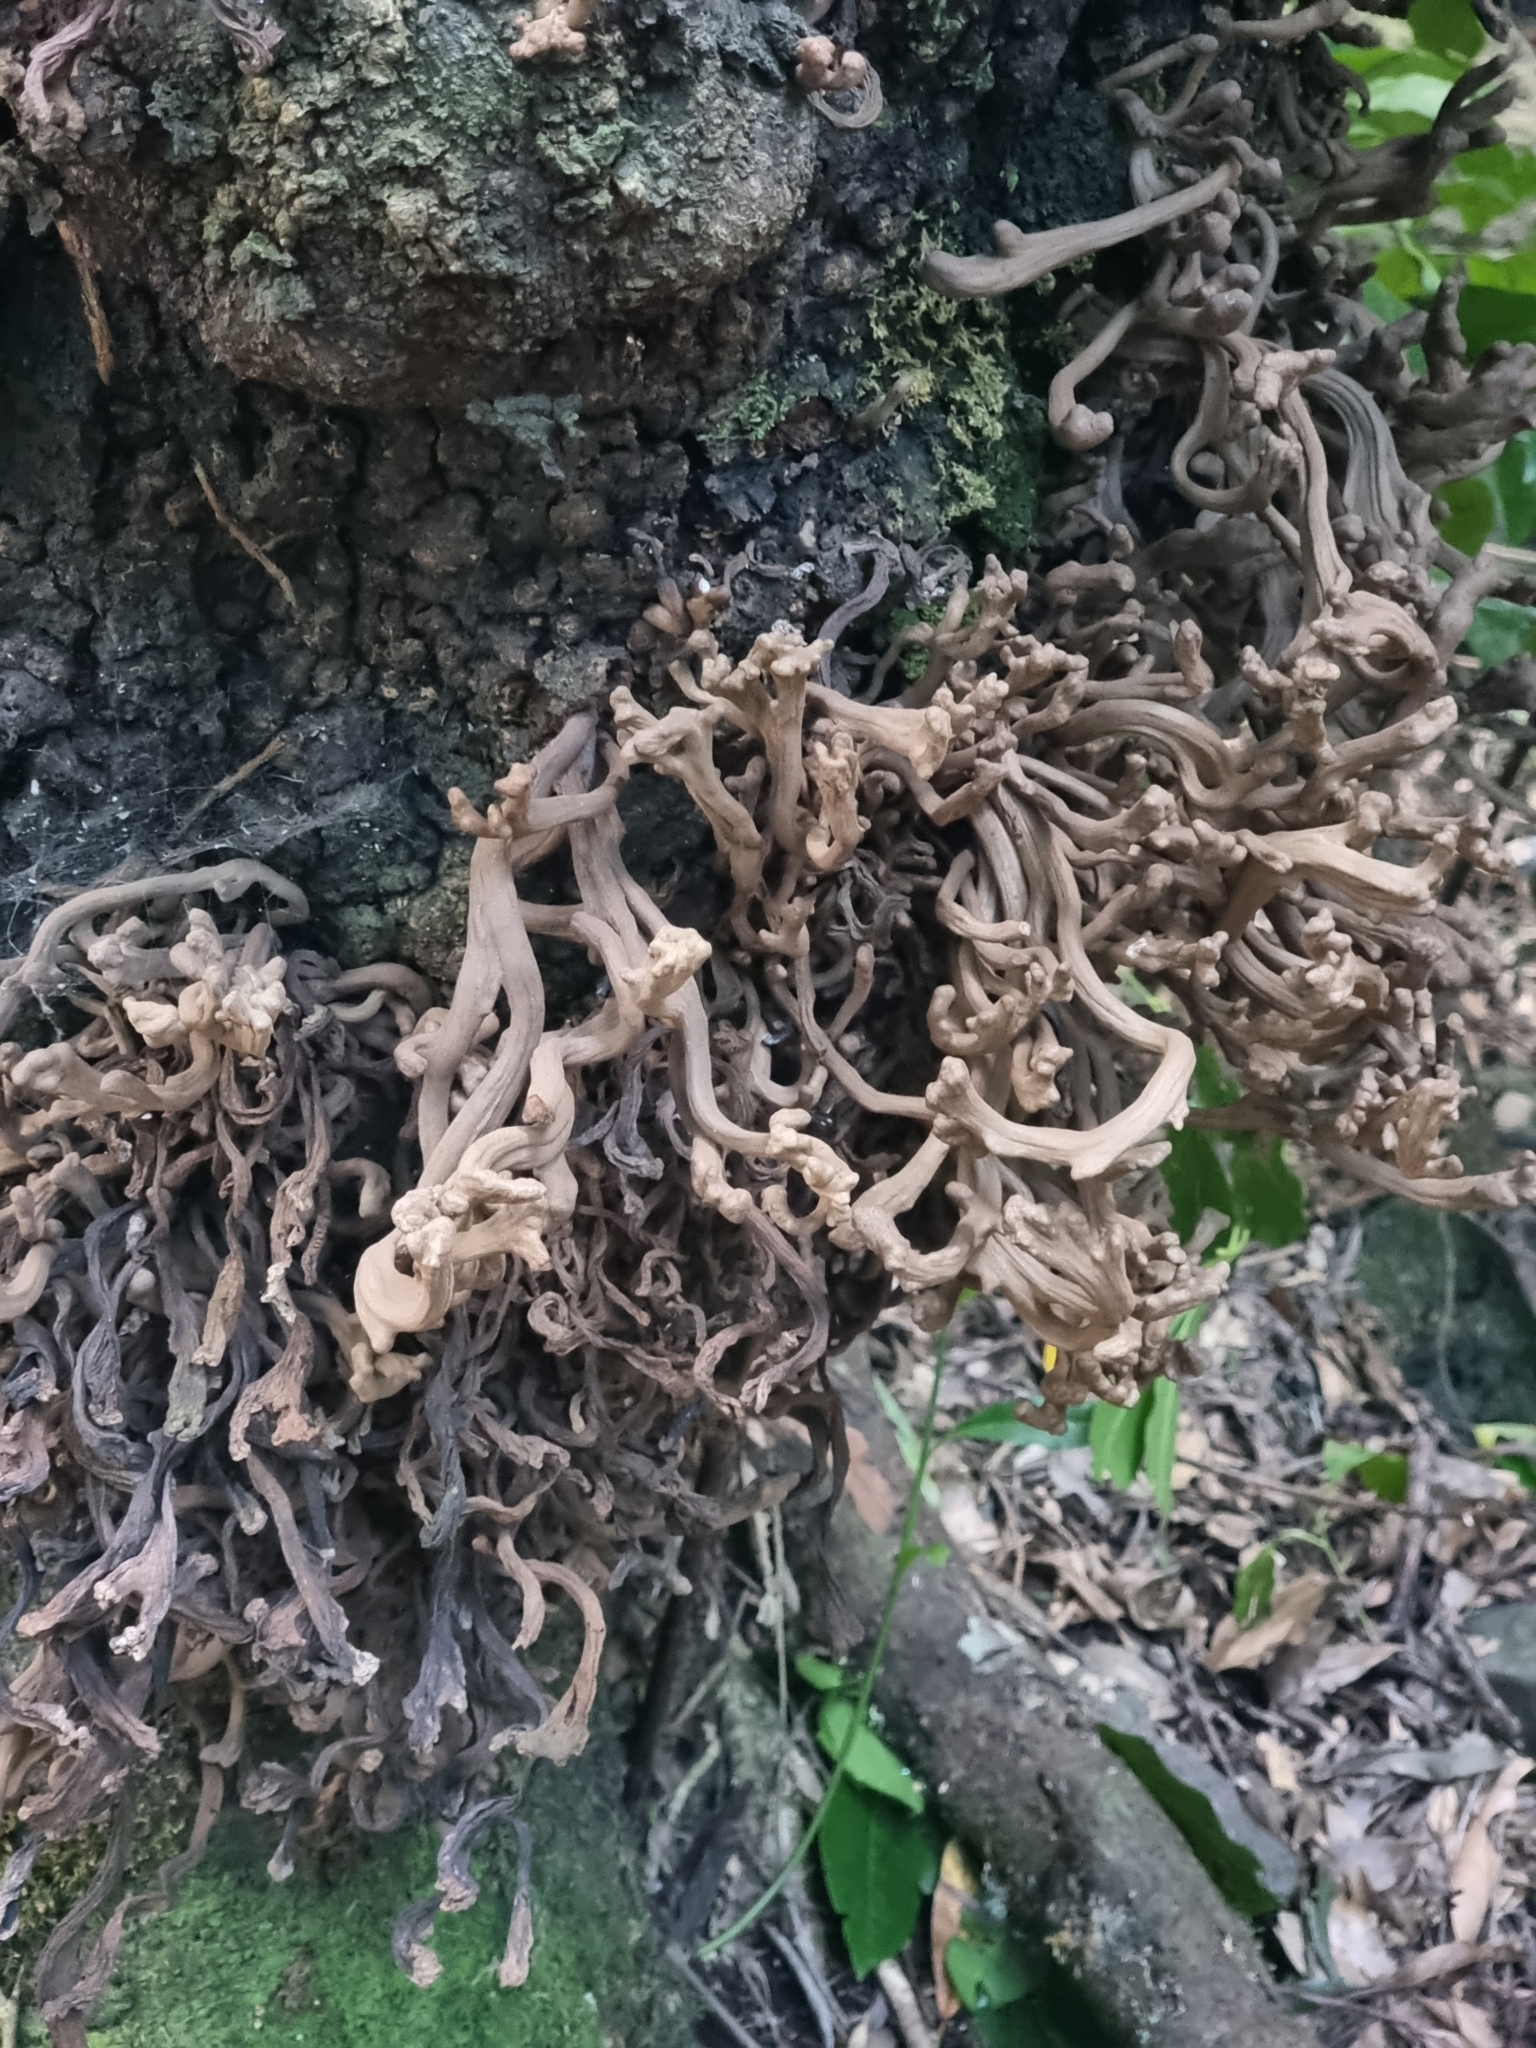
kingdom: Fungi
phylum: Basidiomycota
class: Exobasidiomycetes
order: Exobasidiales
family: Laurobasidiaceae
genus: Laurobasidium
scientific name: Laurobasidium lauri
